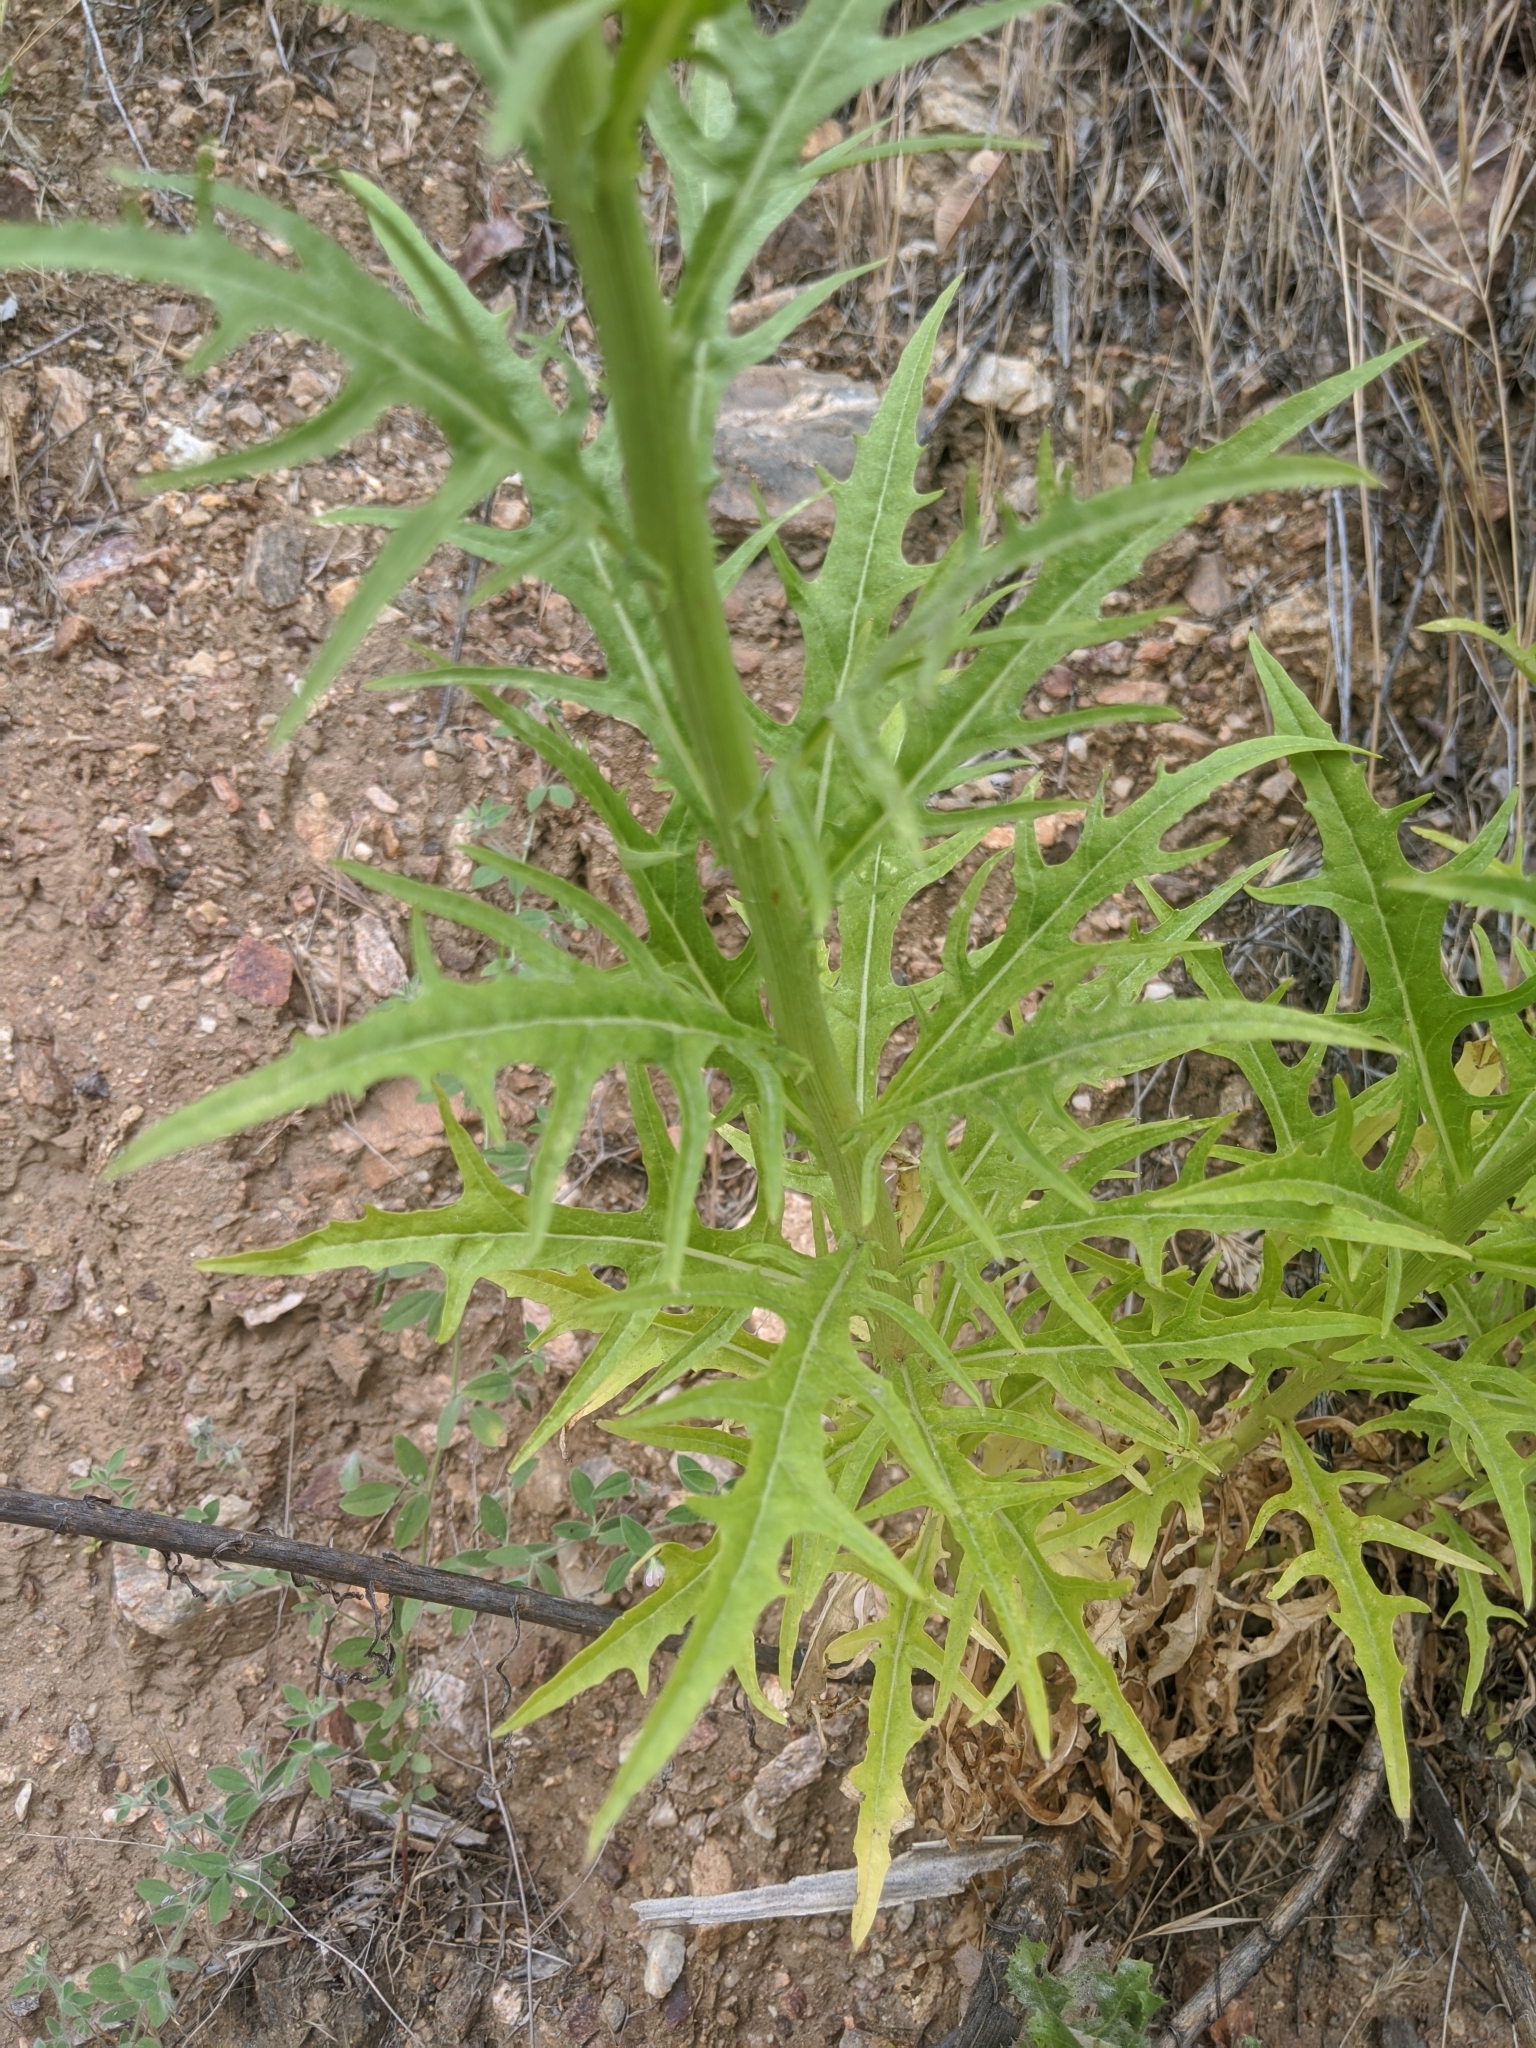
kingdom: Plantae
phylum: Tracheophyta
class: Magnoliopsida
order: Asterales
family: Asteraceae
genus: Malacothrix
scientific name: Malacothrix saxatilis
